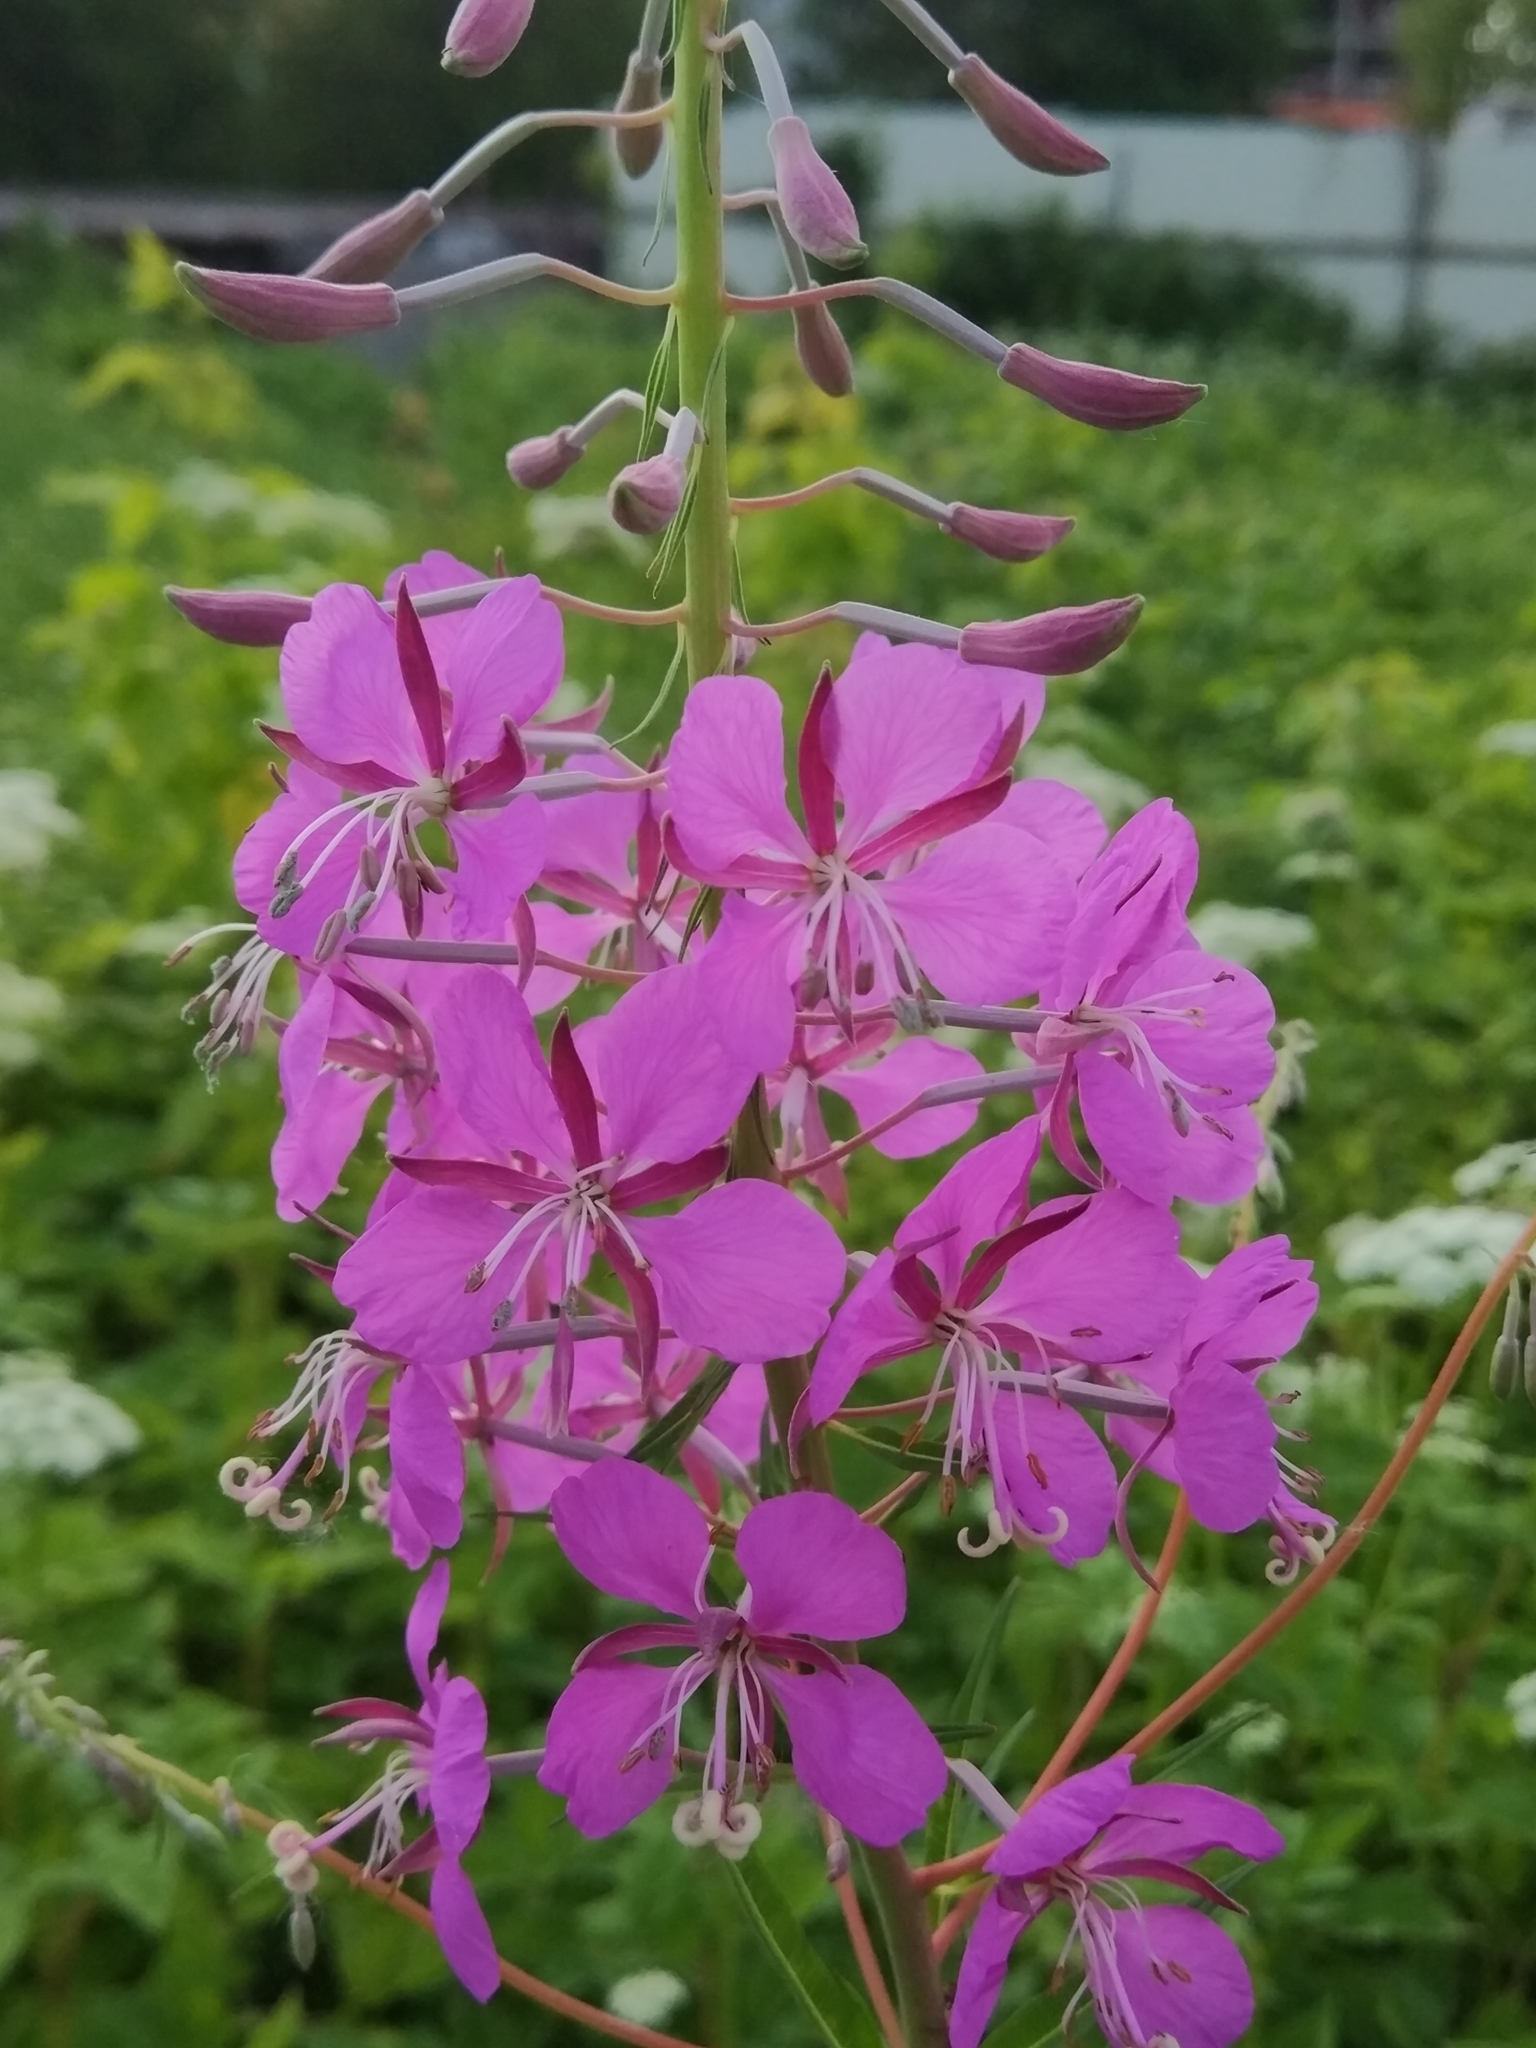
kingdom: Plantae
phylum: Tracheophyta
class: Magnoliopsida
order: Myrtales
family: Onagraceae
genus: Chamaenerion
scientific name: Chamaenerion angustifolium
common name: Fireweed
